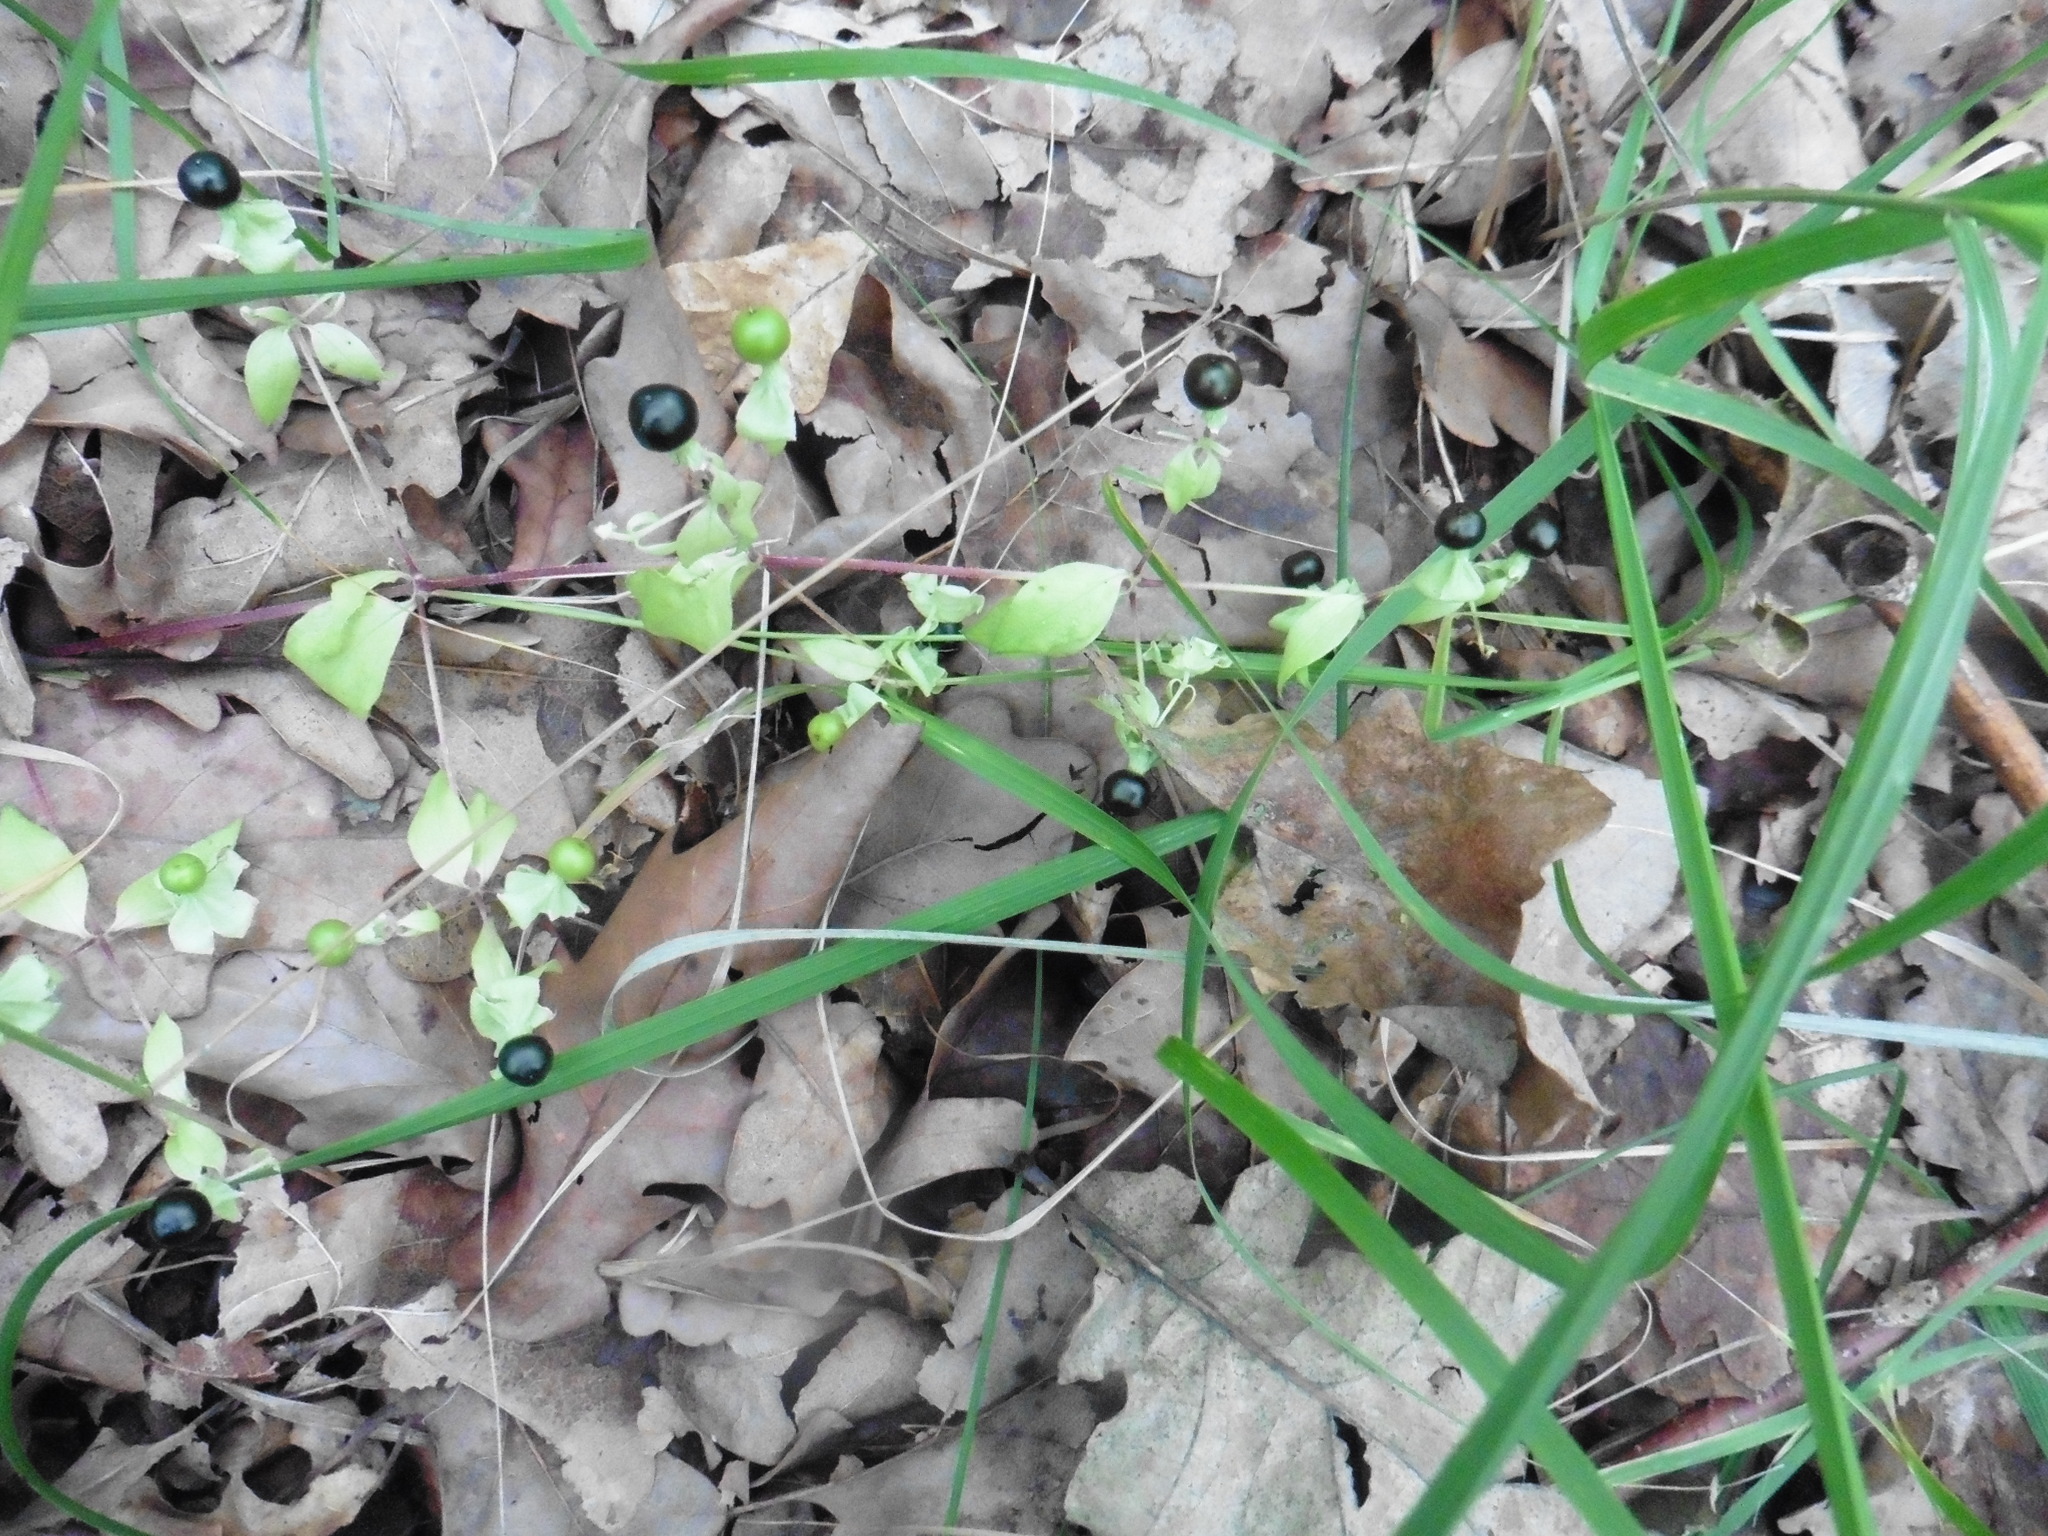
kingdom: Plantae
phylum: Tracheophyta
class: Magnoliopsida
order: Caryophyllales
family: Caryophyllaceae
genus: Silene
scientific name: Silene baccifera
